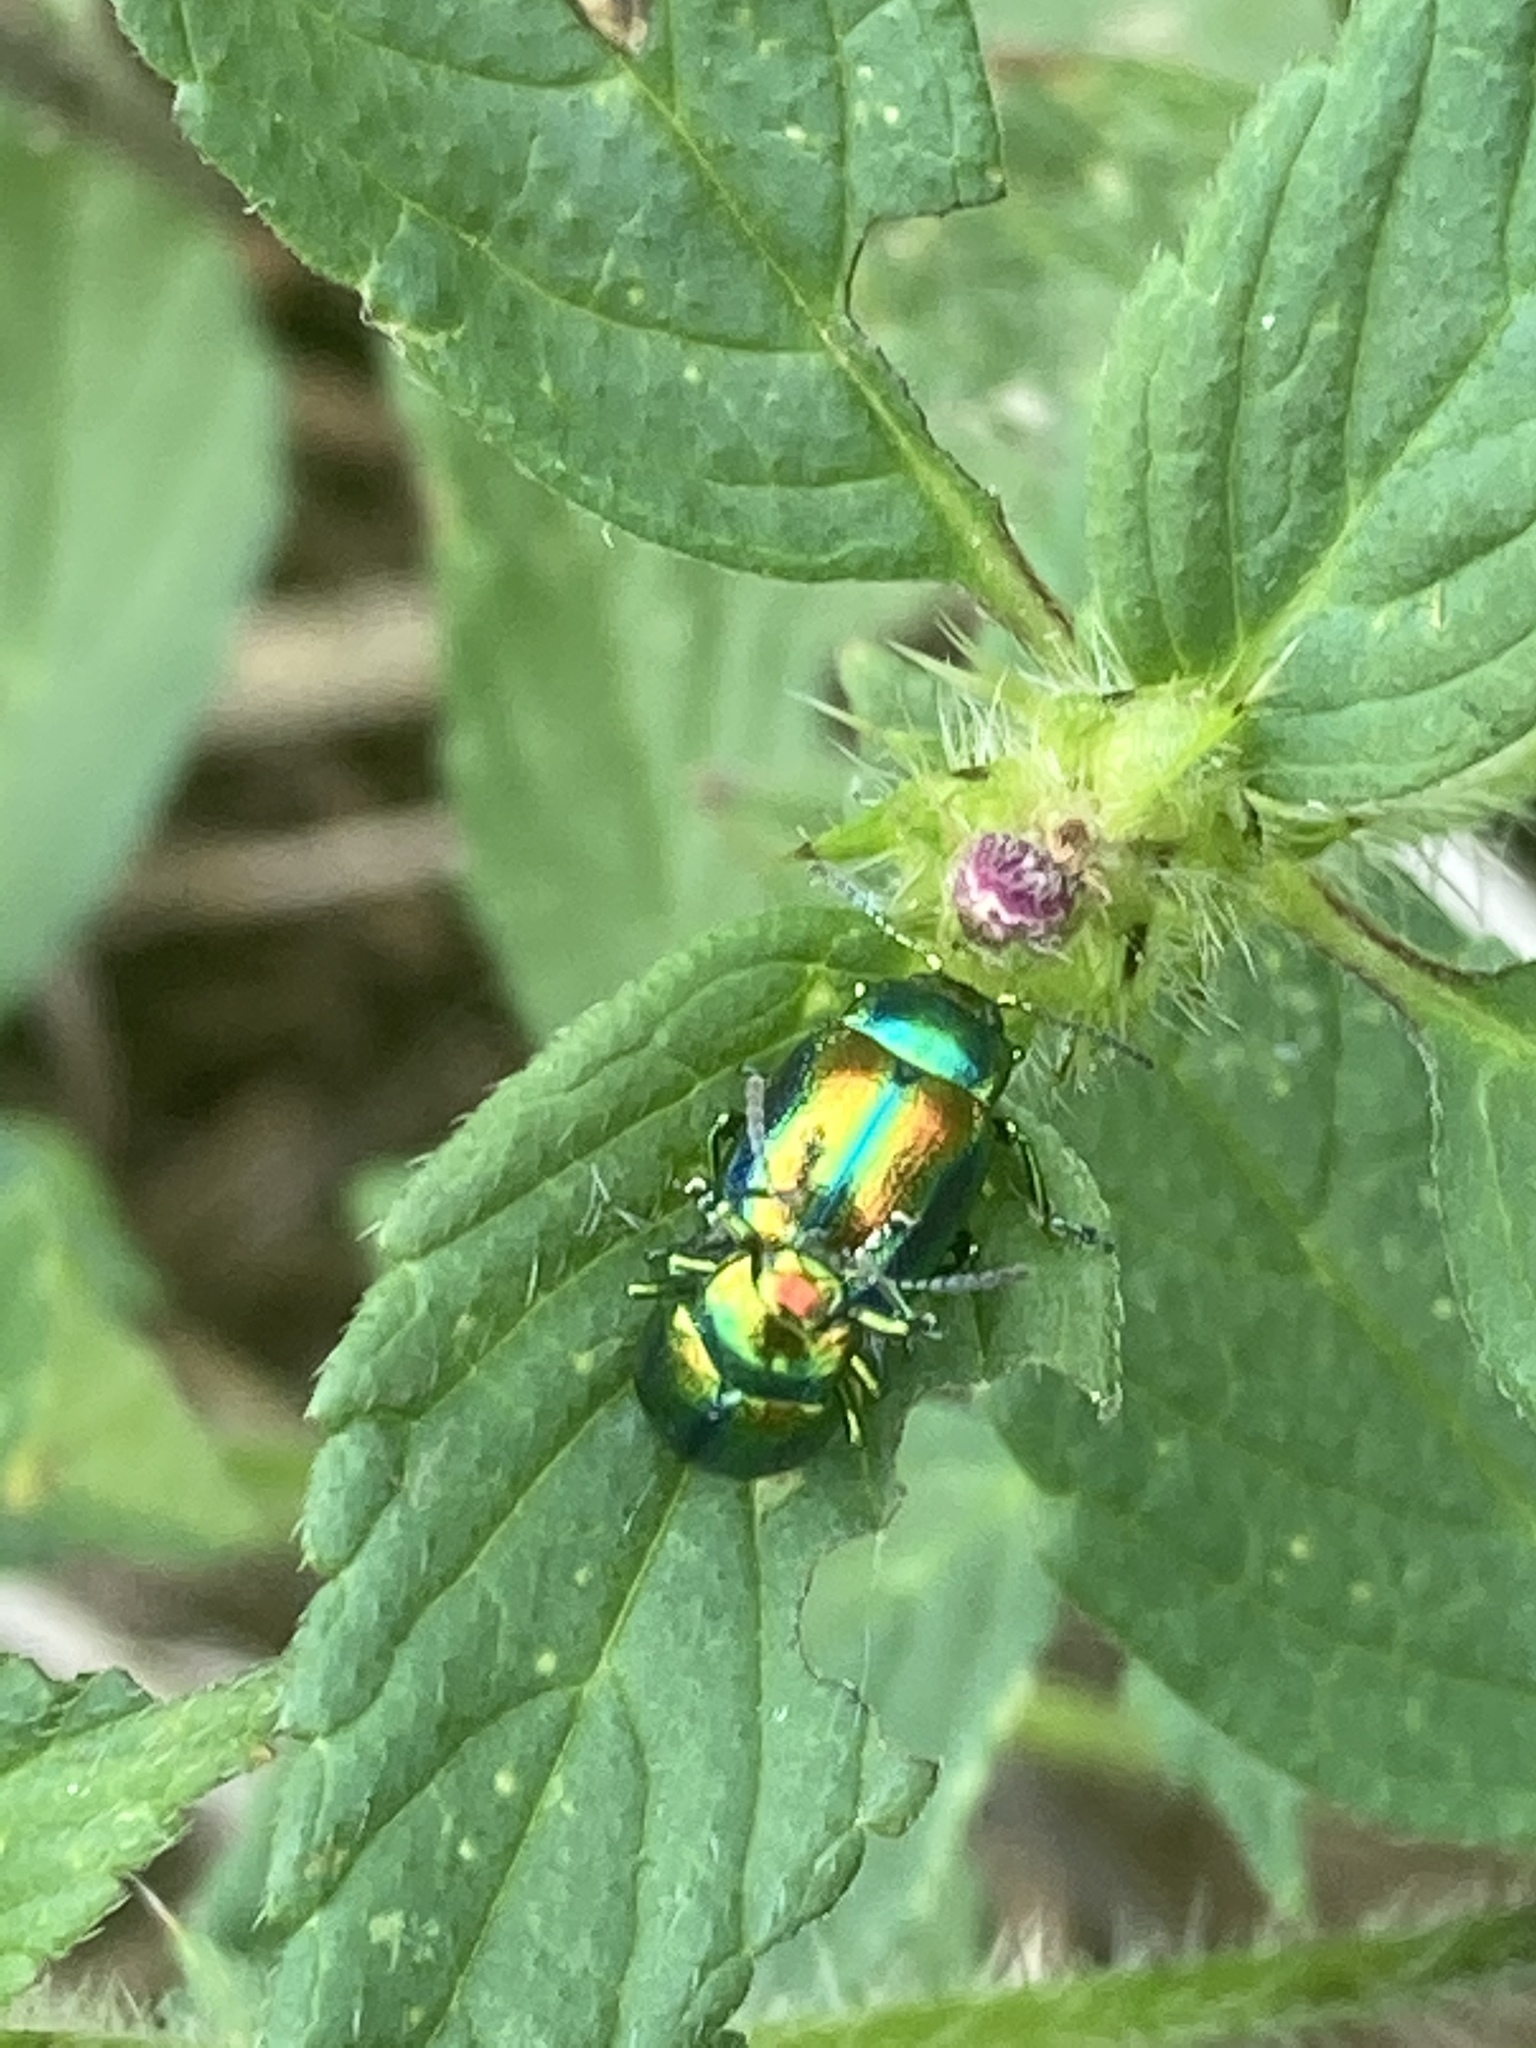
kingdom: Animalia
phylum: Arthropoda
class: Insecta
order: Coleoptera
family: Chrysomelidae
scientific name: Chrysomelidae
